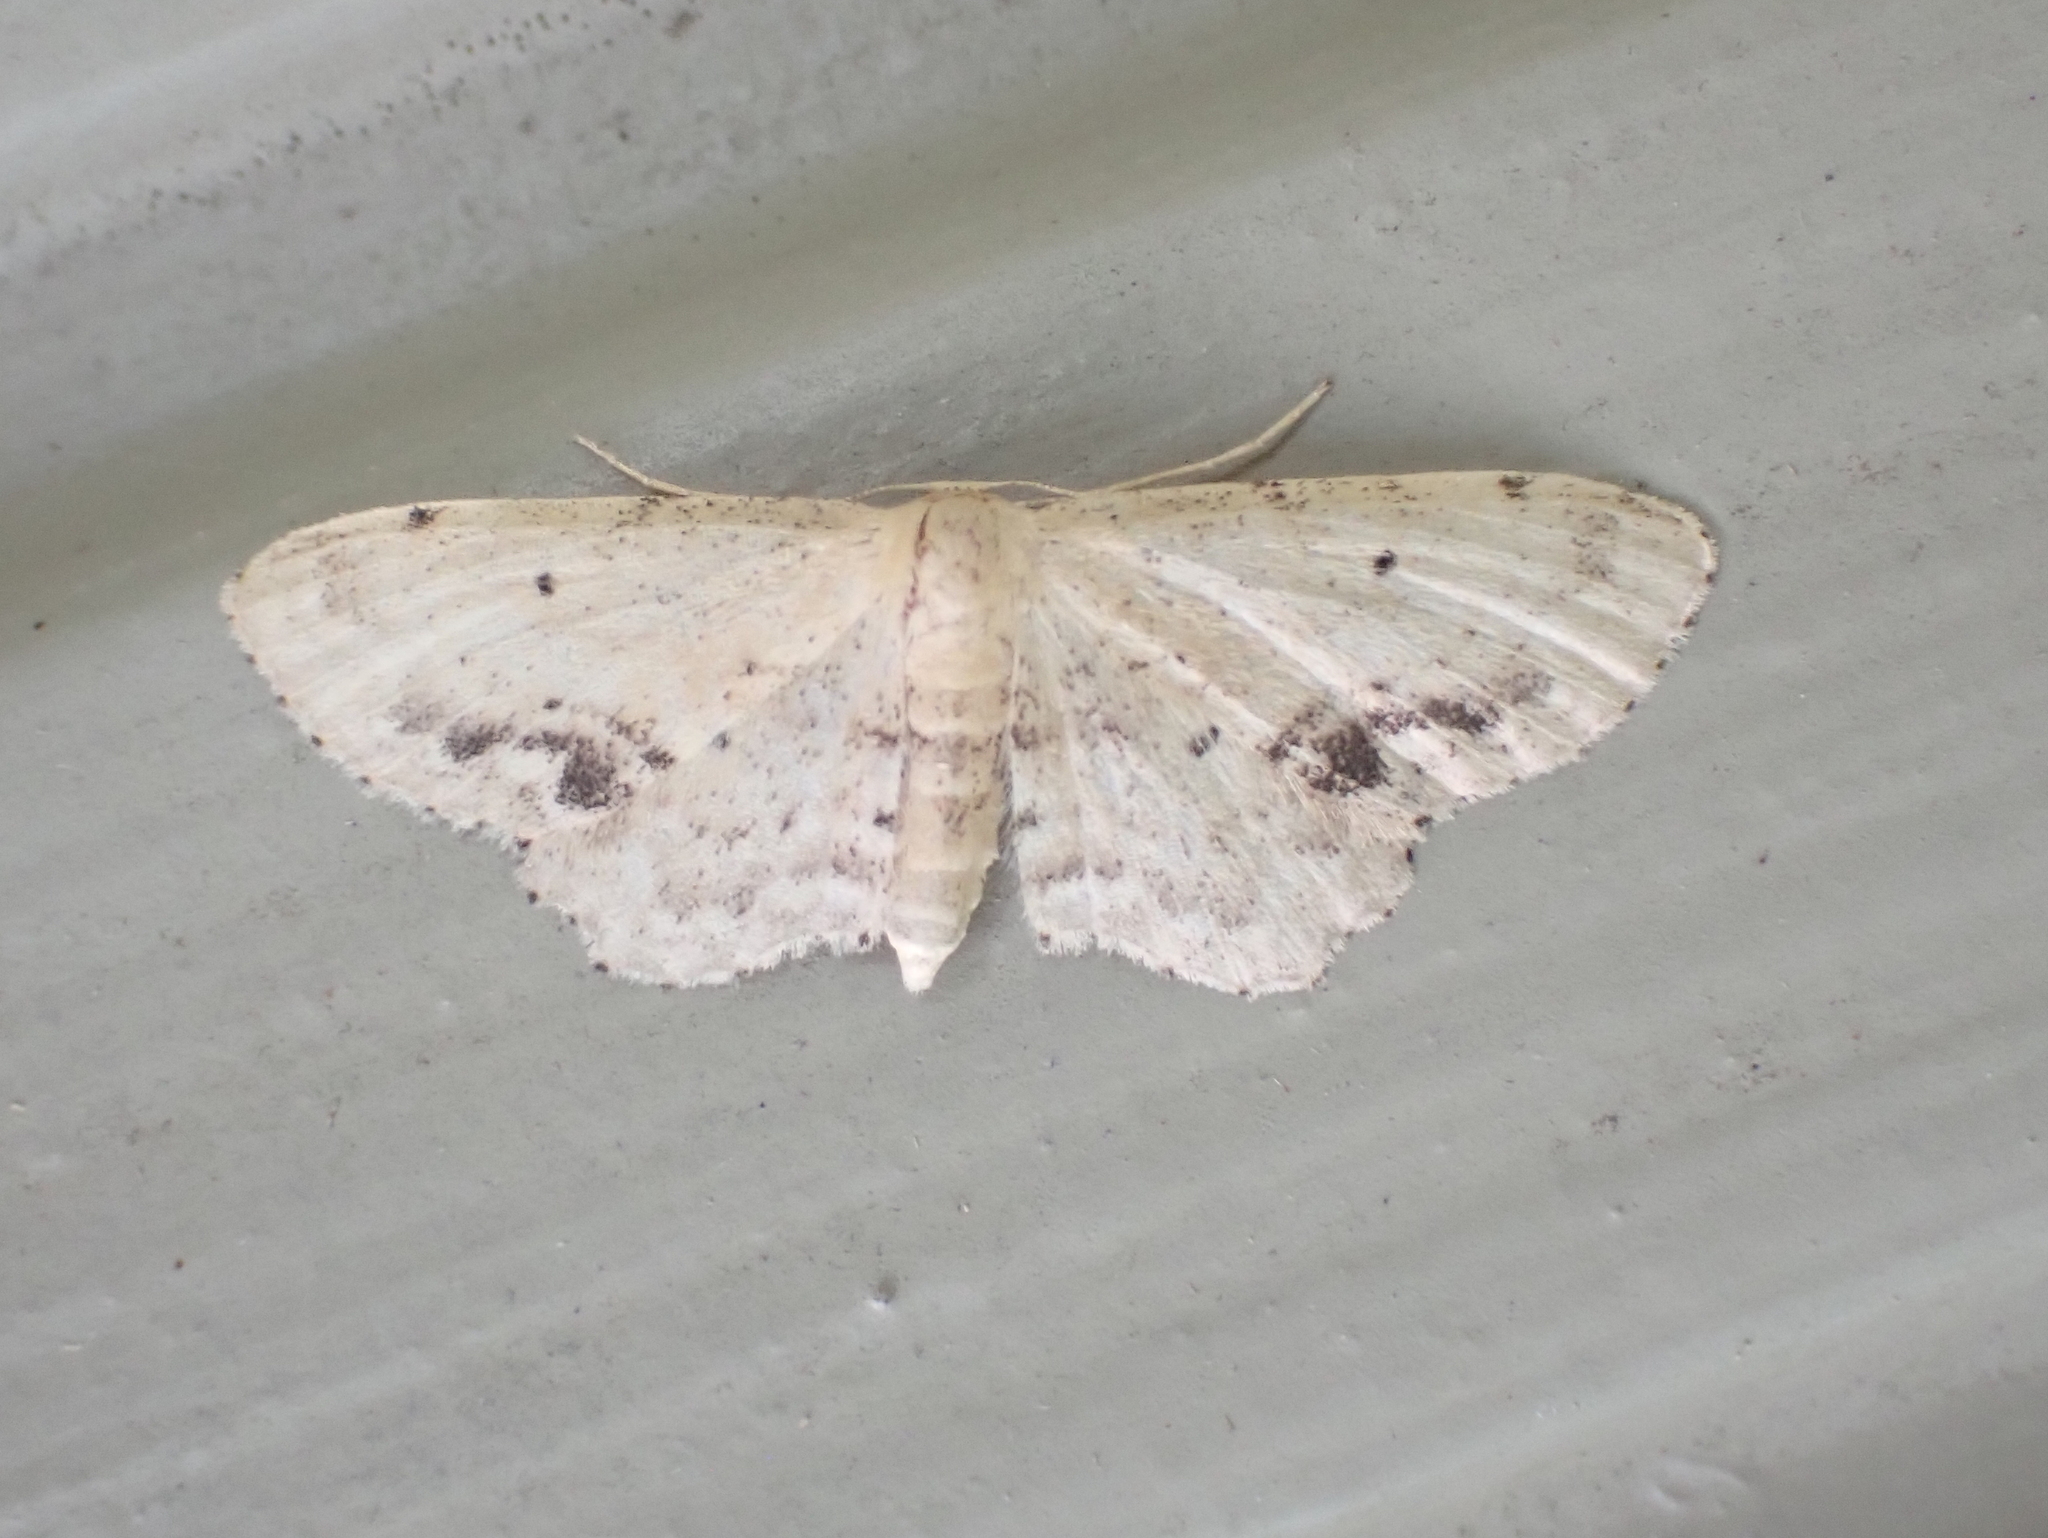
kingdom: Animalia
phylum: Arthropoda
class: Insecta
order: Lepidoptera
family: Geometridae
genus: Idaea
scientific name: Idaea dimidiata
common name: Single-dotted wave
